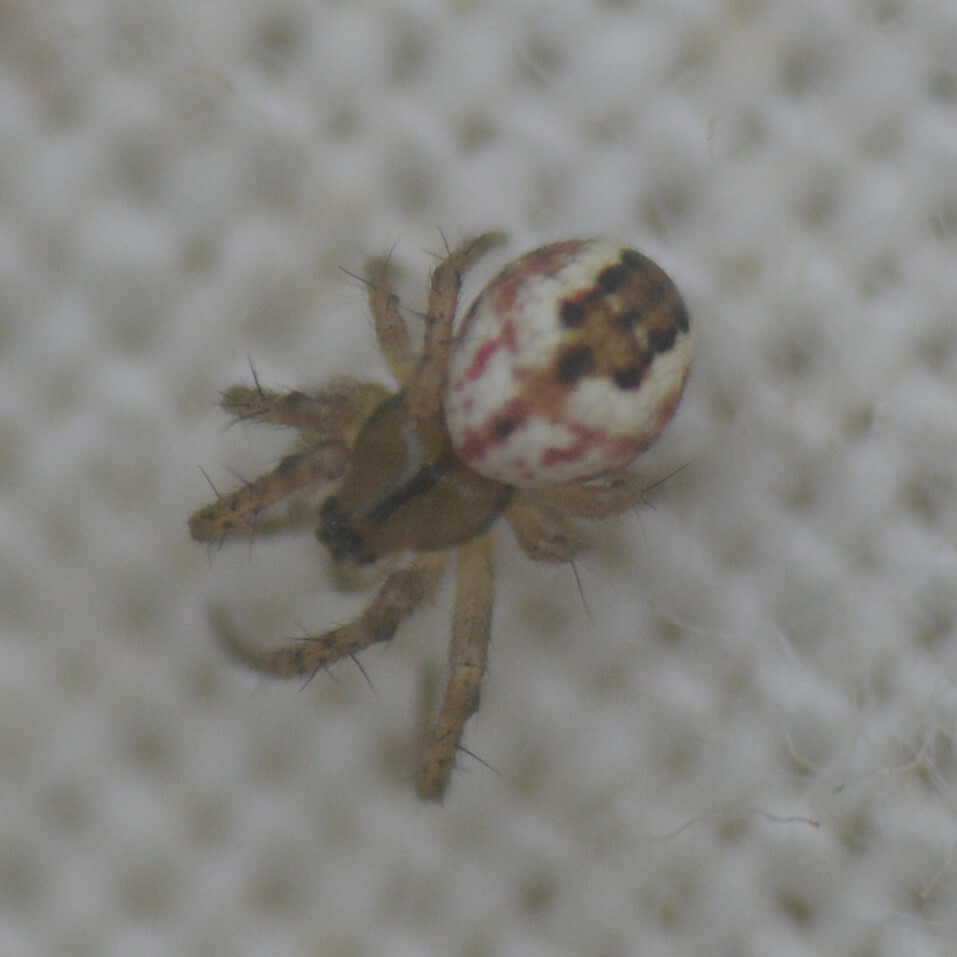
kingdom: Animalia
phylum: Arthropoda
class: Arachnida
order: Araneae
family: Araneidae
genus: Mangora
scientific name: Mangora acalypha
